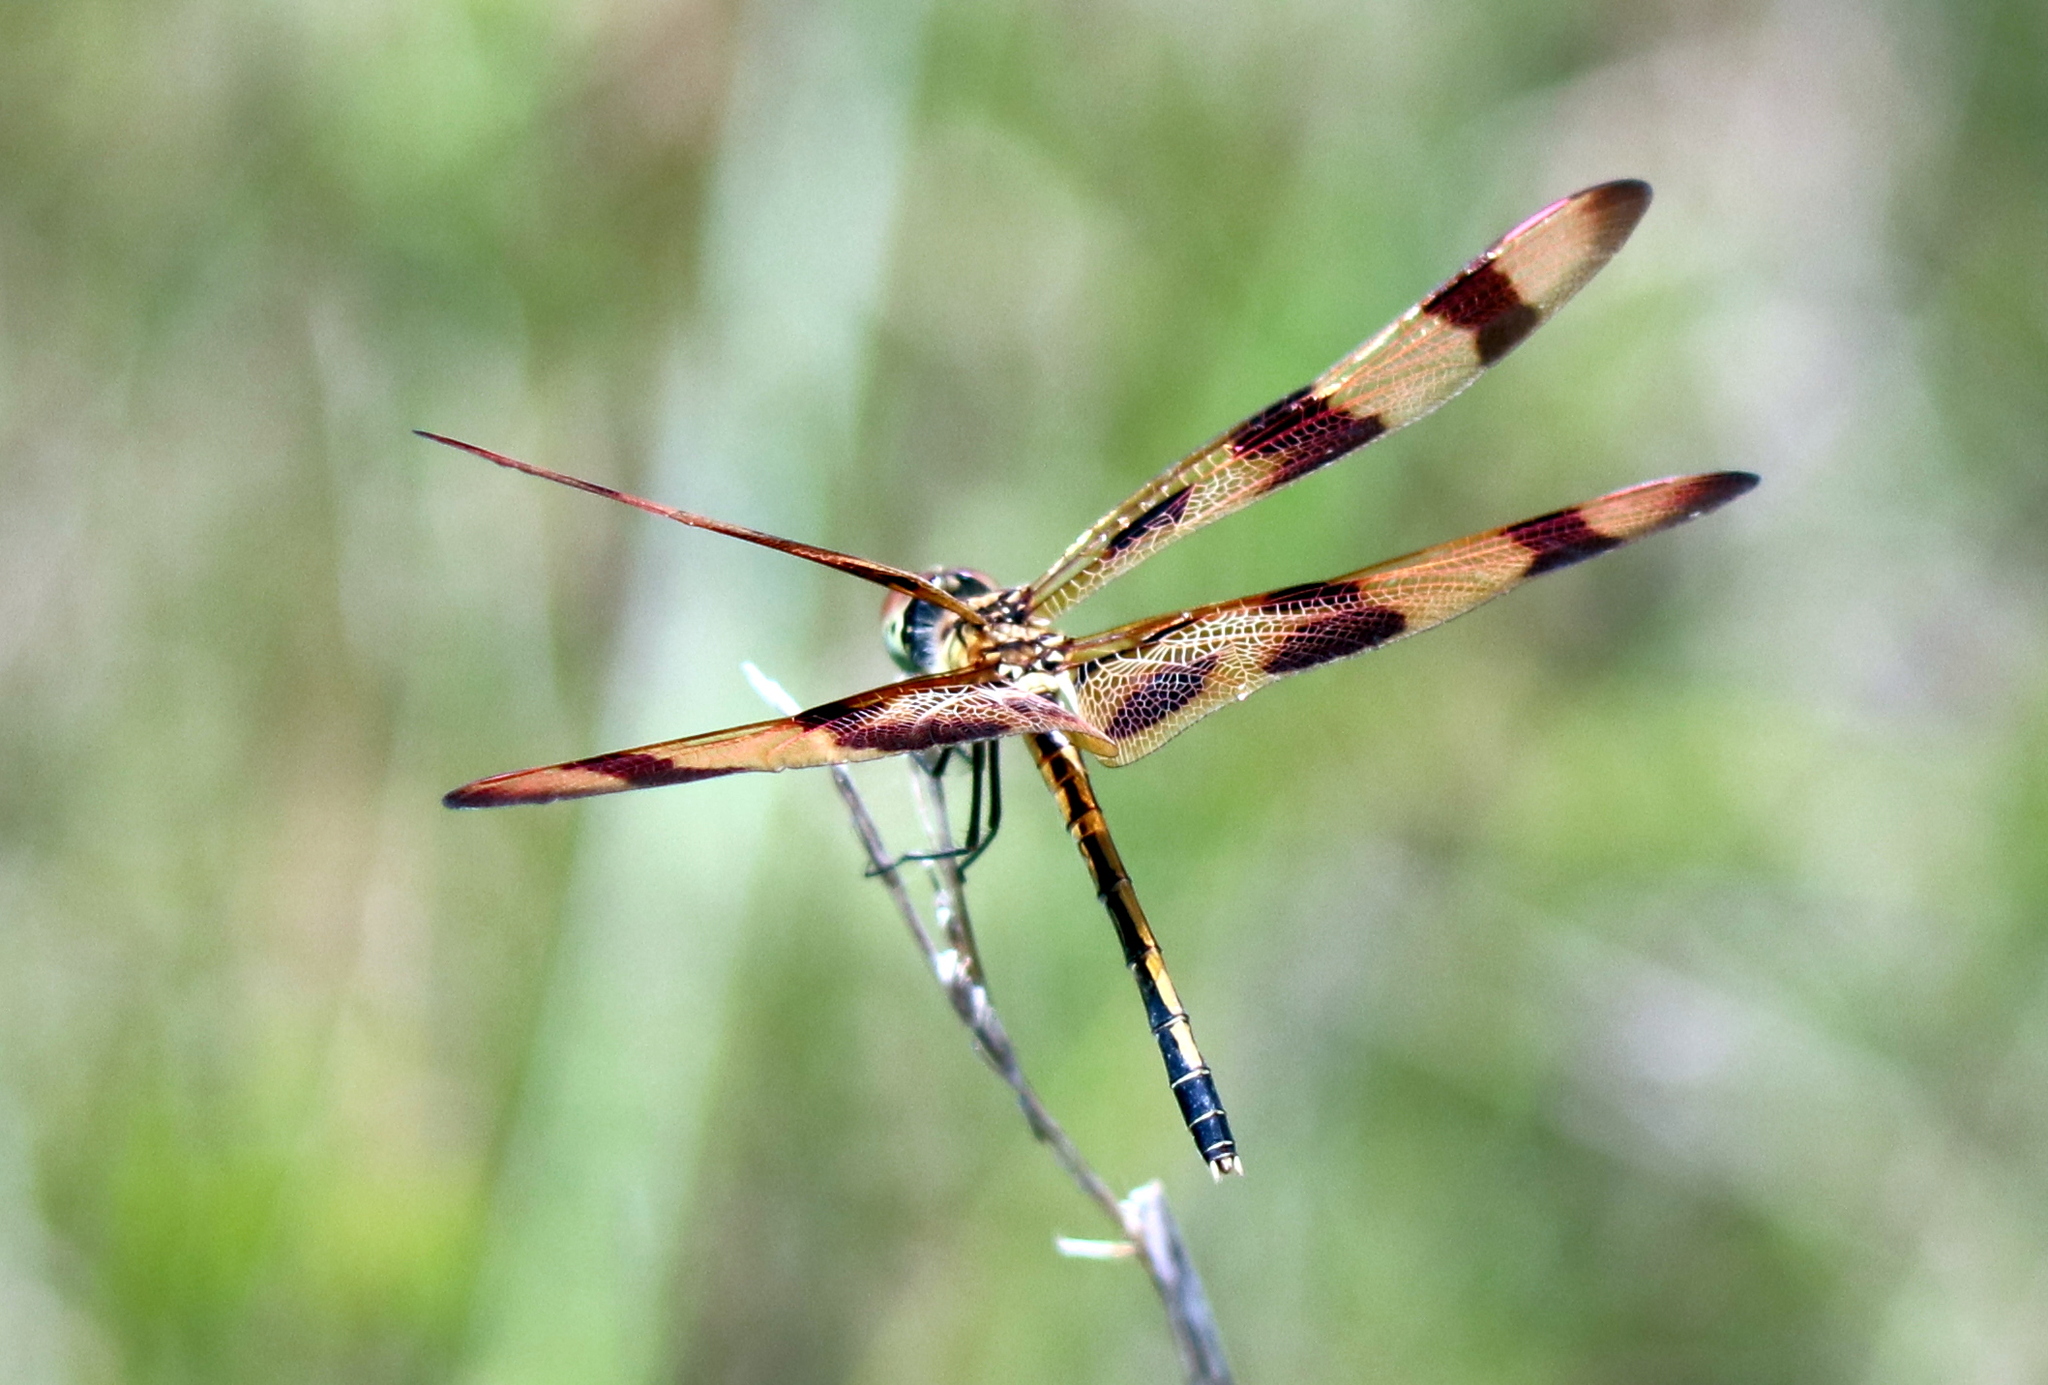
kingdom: Animalia
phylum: Arthropoda
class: Insecta
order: Odonata
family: Libellulidae
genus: Celithemis
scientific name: Celithemis eponina
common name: Halloween pennant
